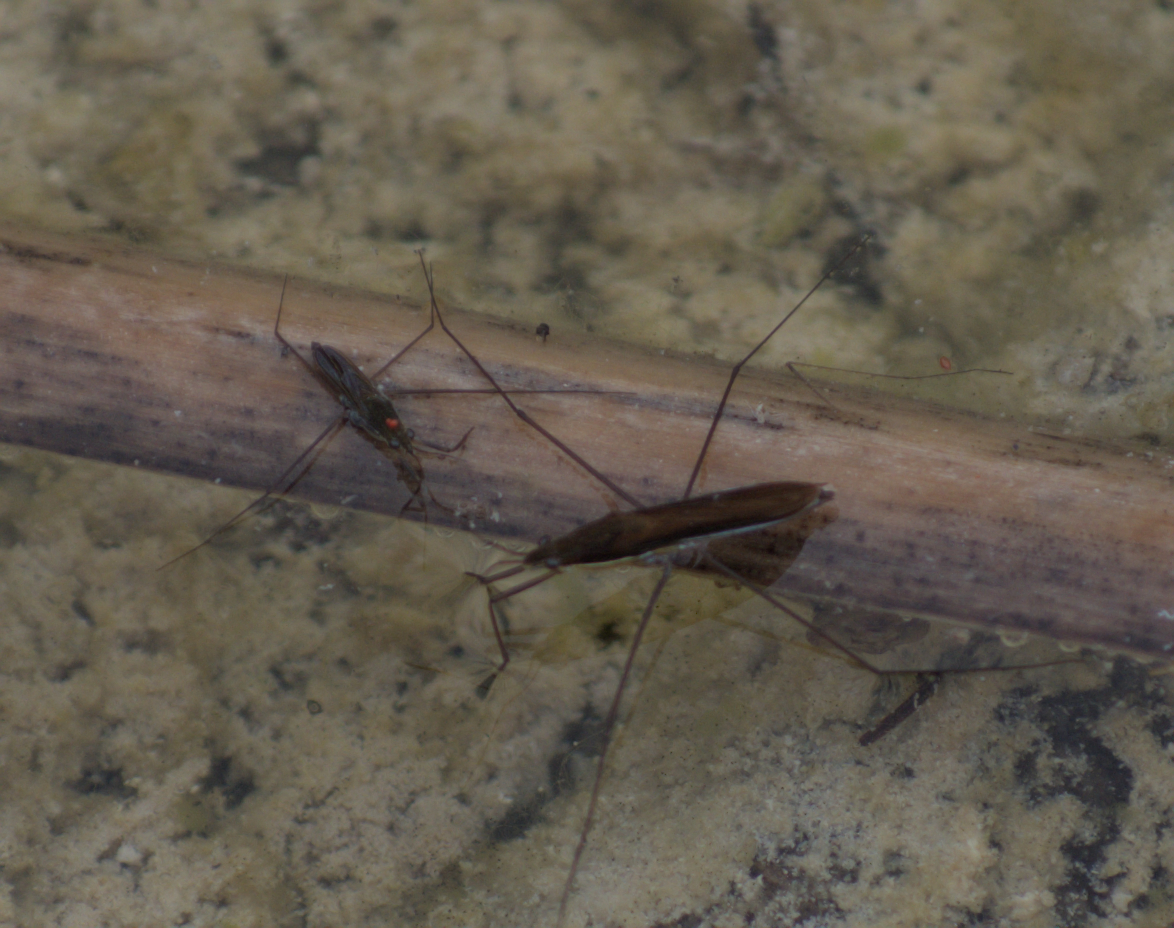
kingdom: Animalia
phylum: Arthropoda
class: Insecta
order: Hemiptera
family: Gerridae
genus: Limnoporus
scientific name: Limnoporus dissortis
